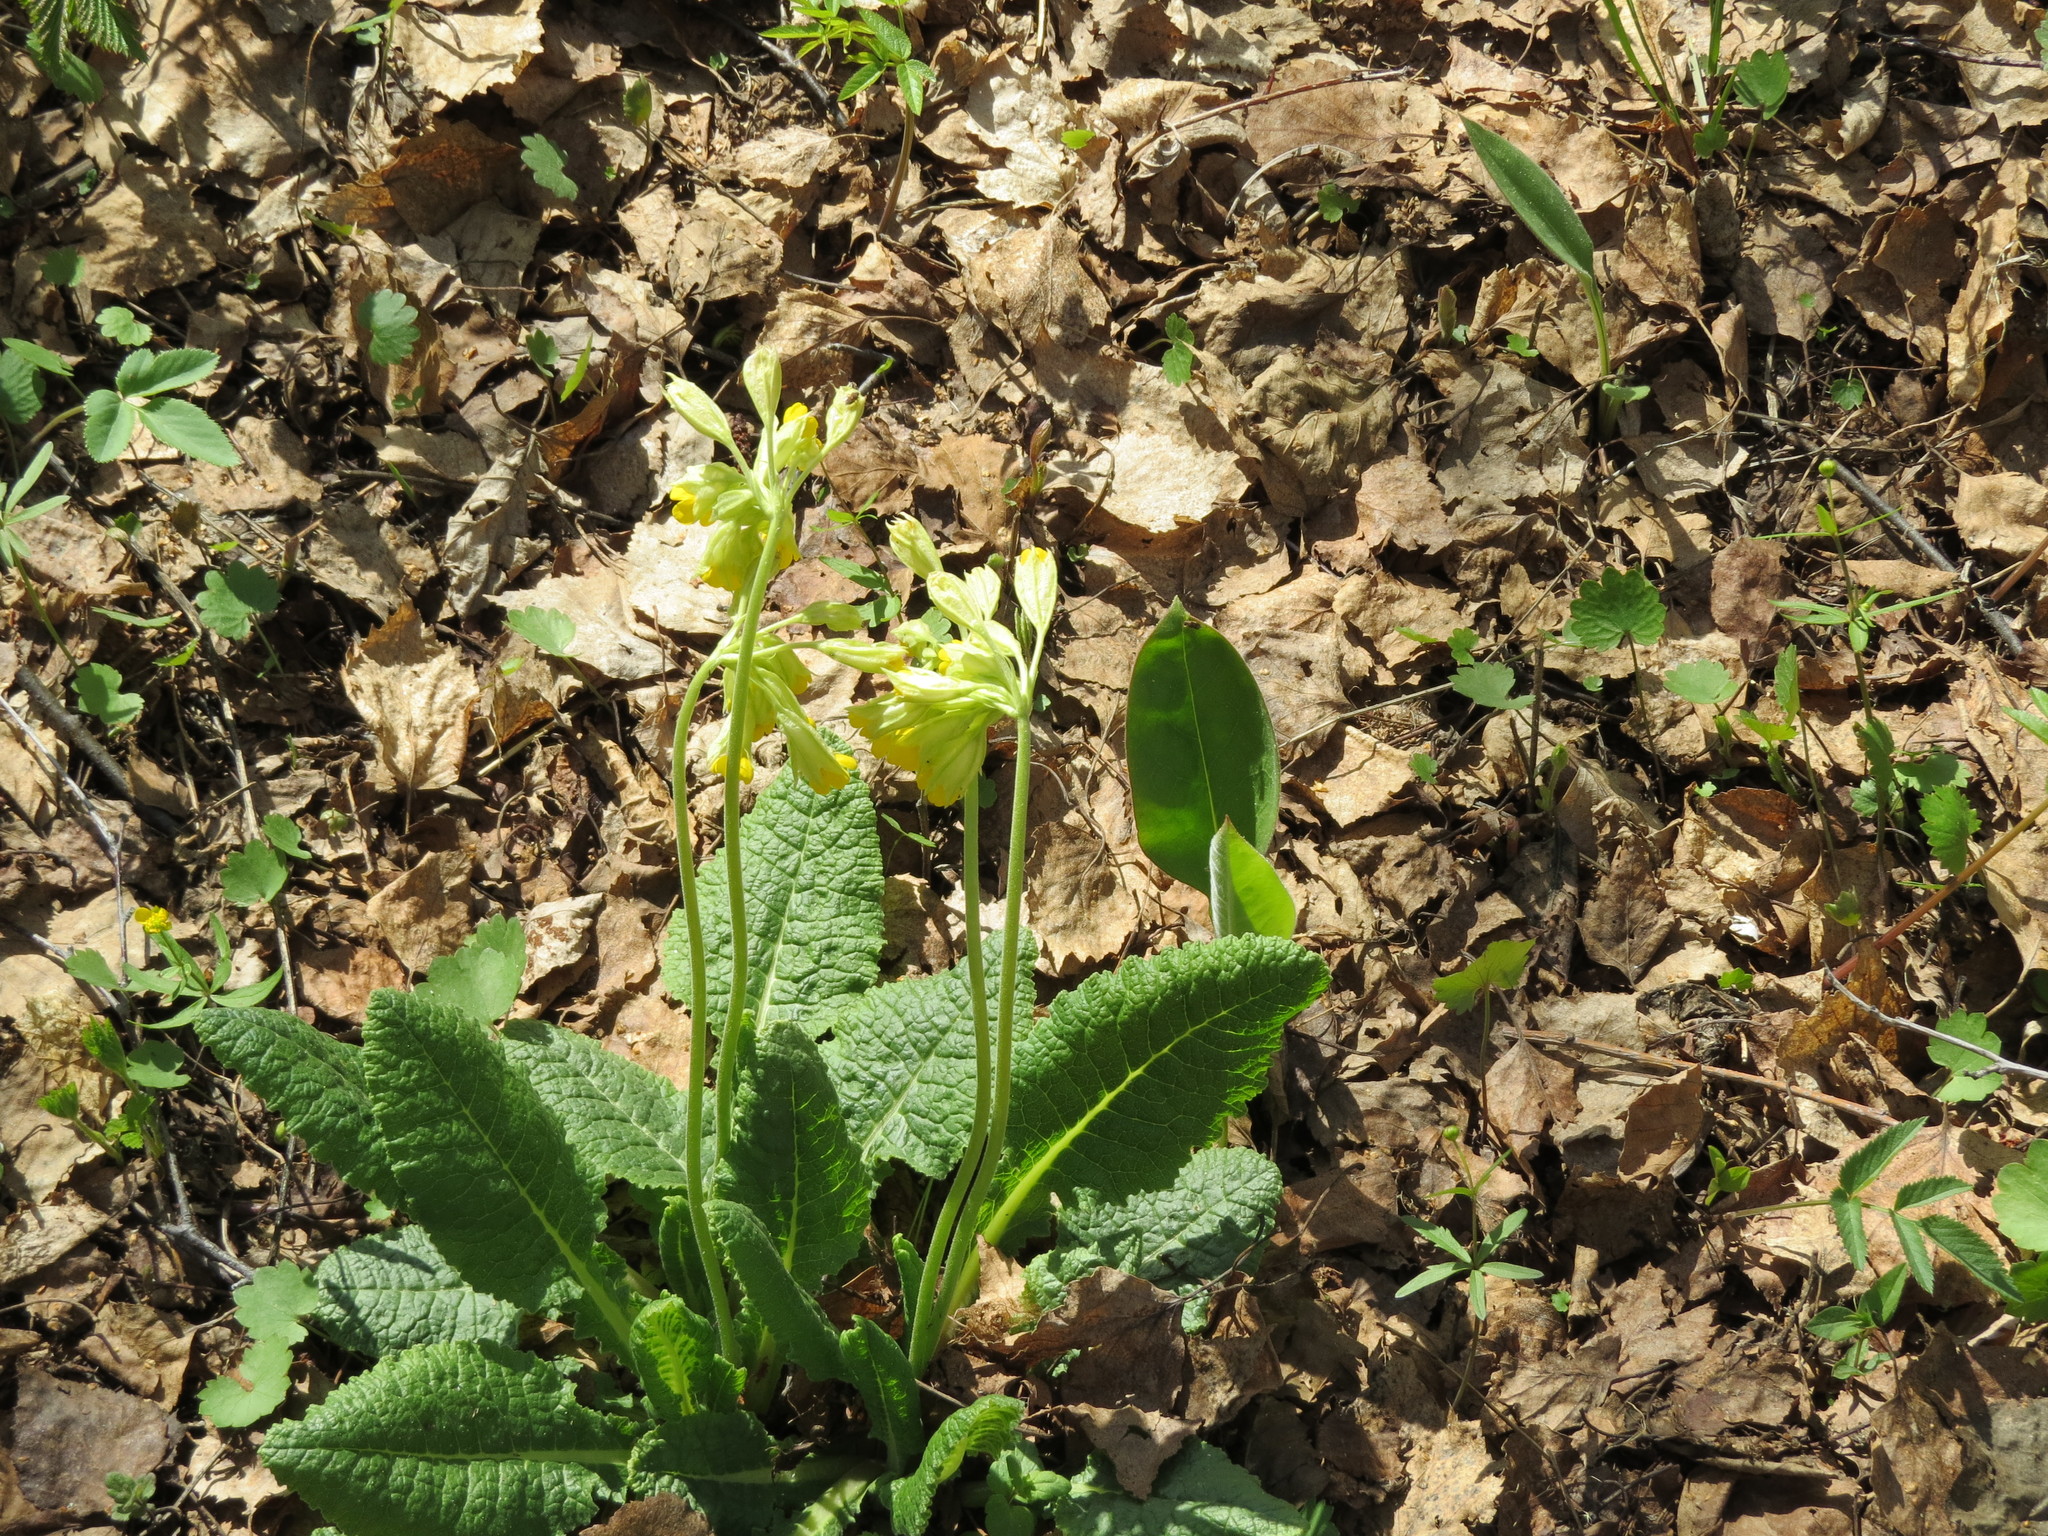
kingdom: Plantae
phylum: Tracheophyta
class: Magnoliopsida
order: Ericales
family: Primulaceae
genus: Primula
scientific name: Primula veris
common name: Cowslip
